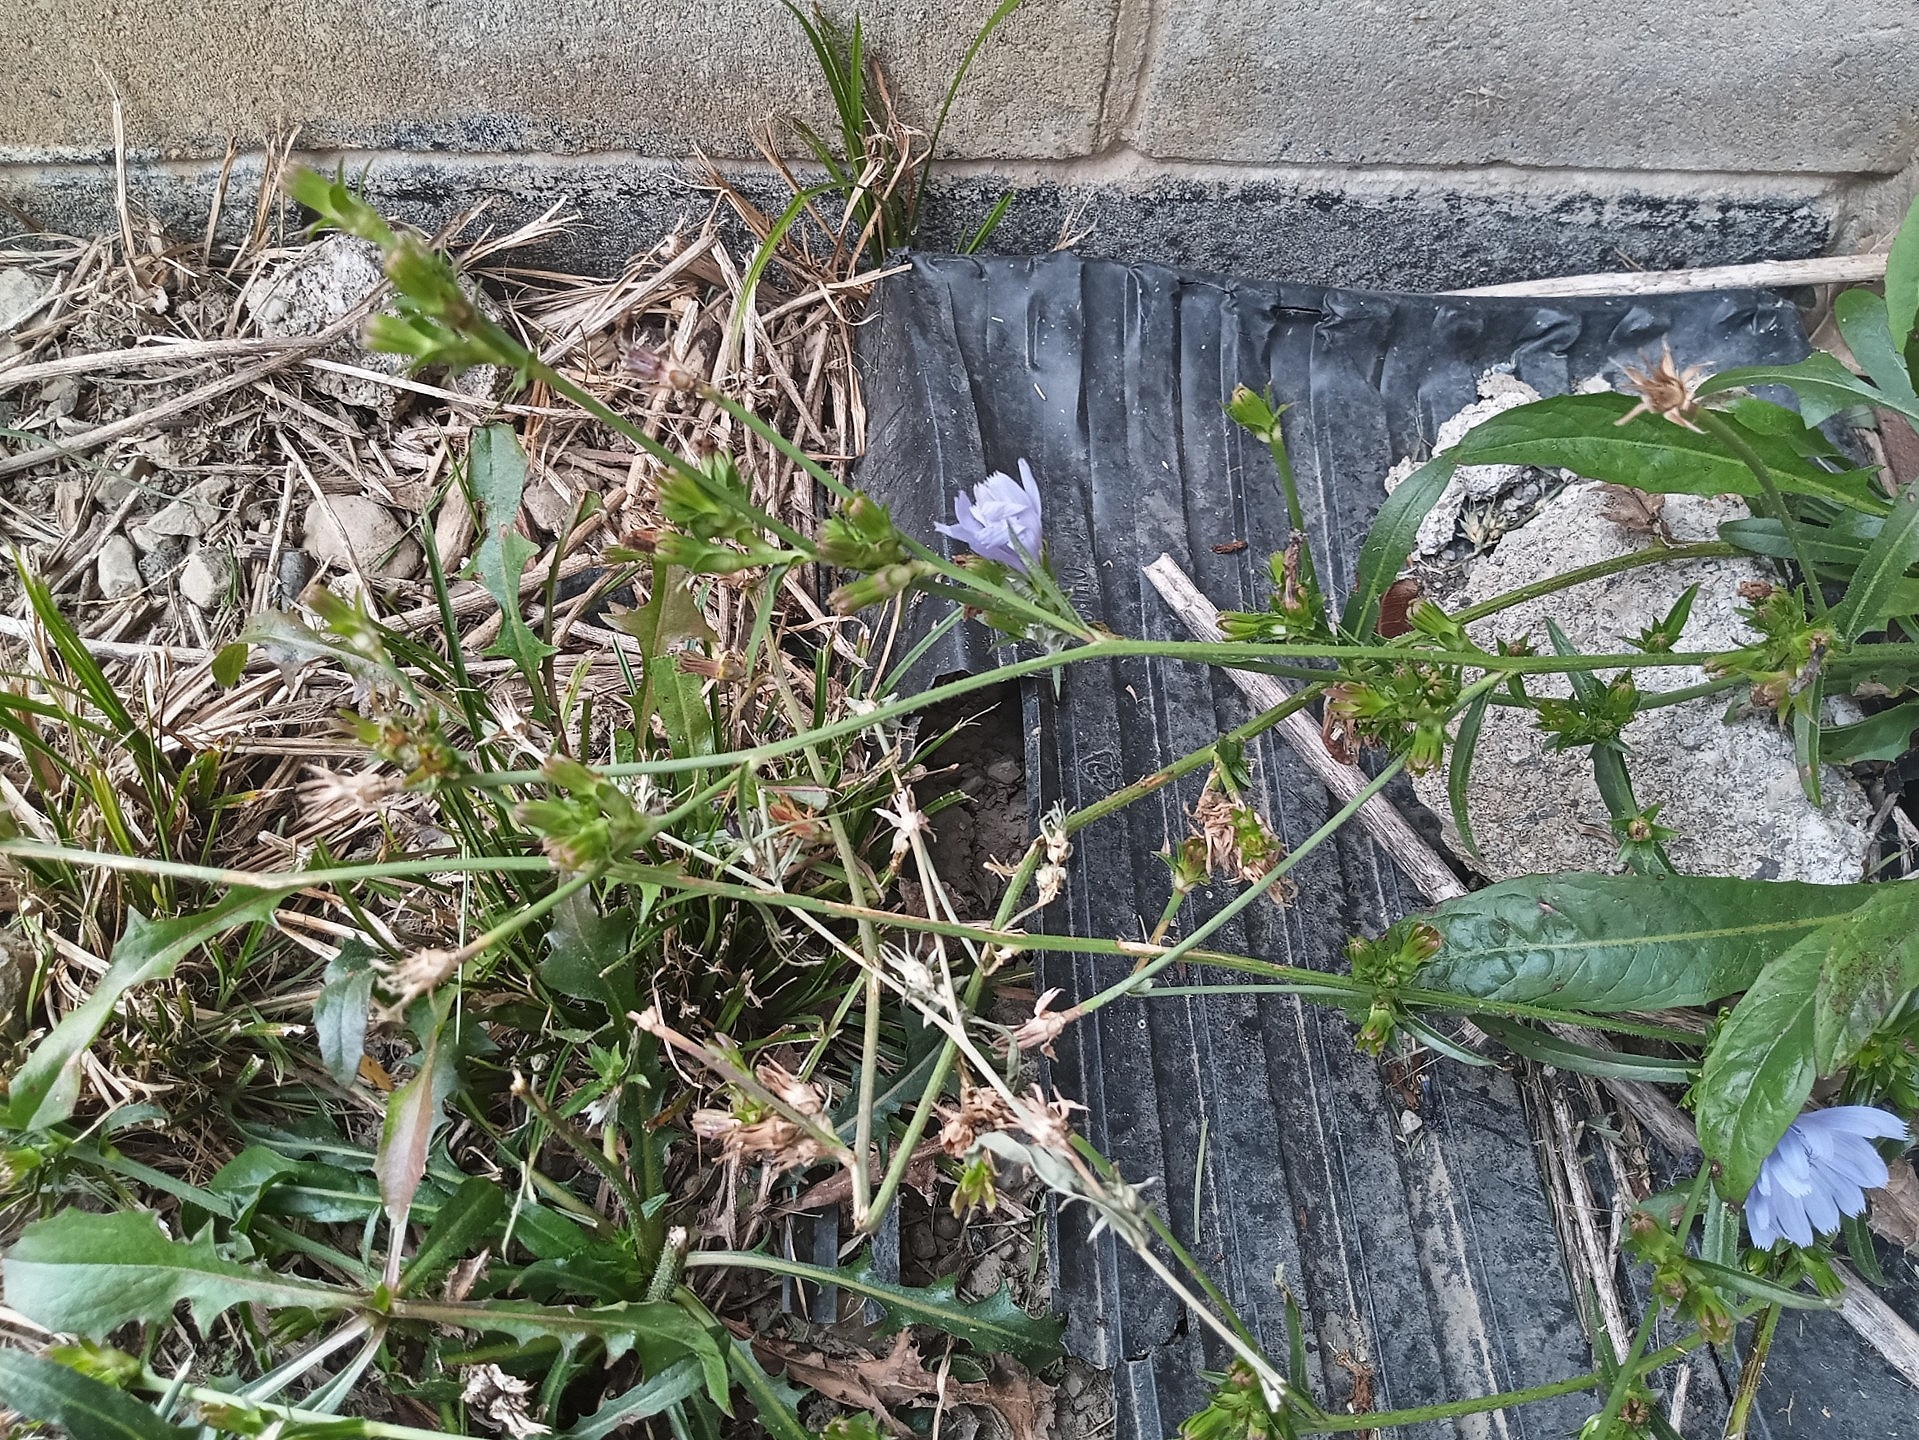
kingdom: Plantae
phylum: Tracheophyta
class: Magnoliopsida
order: Asterales
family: Asteraceae
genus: Cichorium
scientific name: Cichorium intybus
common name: Chicory
